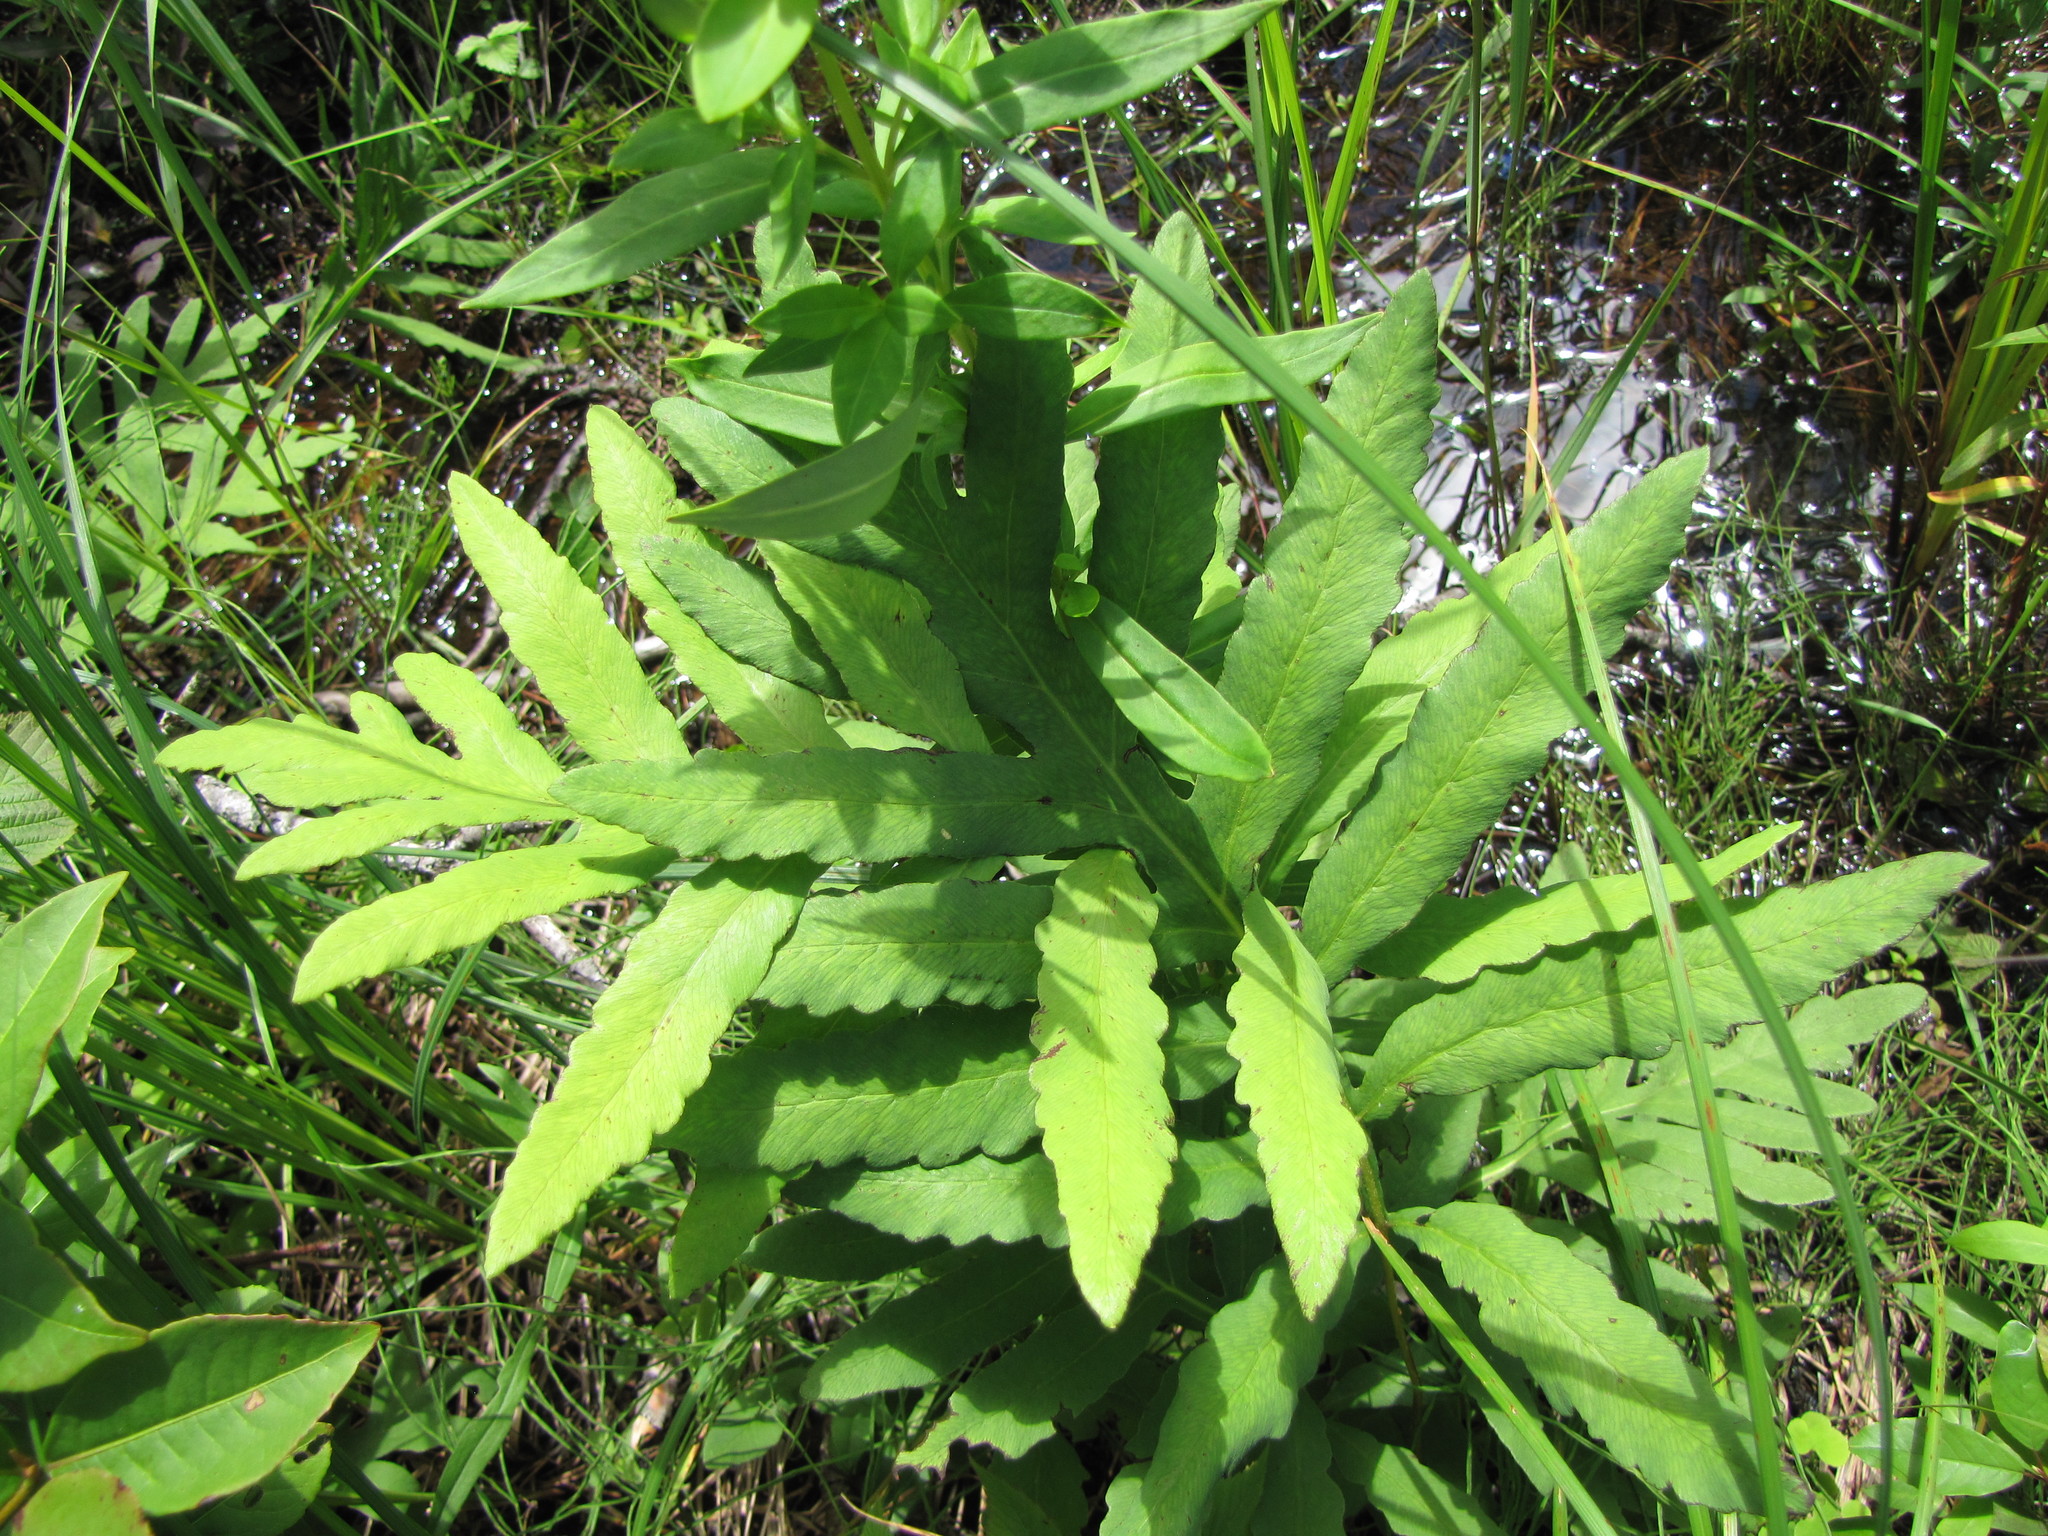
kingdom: Plantae
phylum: Tracheophyta
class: Polypodiopsida
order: Polypodiales
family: Onocleaceae
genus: Onoclea
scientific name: Onoclea sensibilis
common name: Sensitive fern
